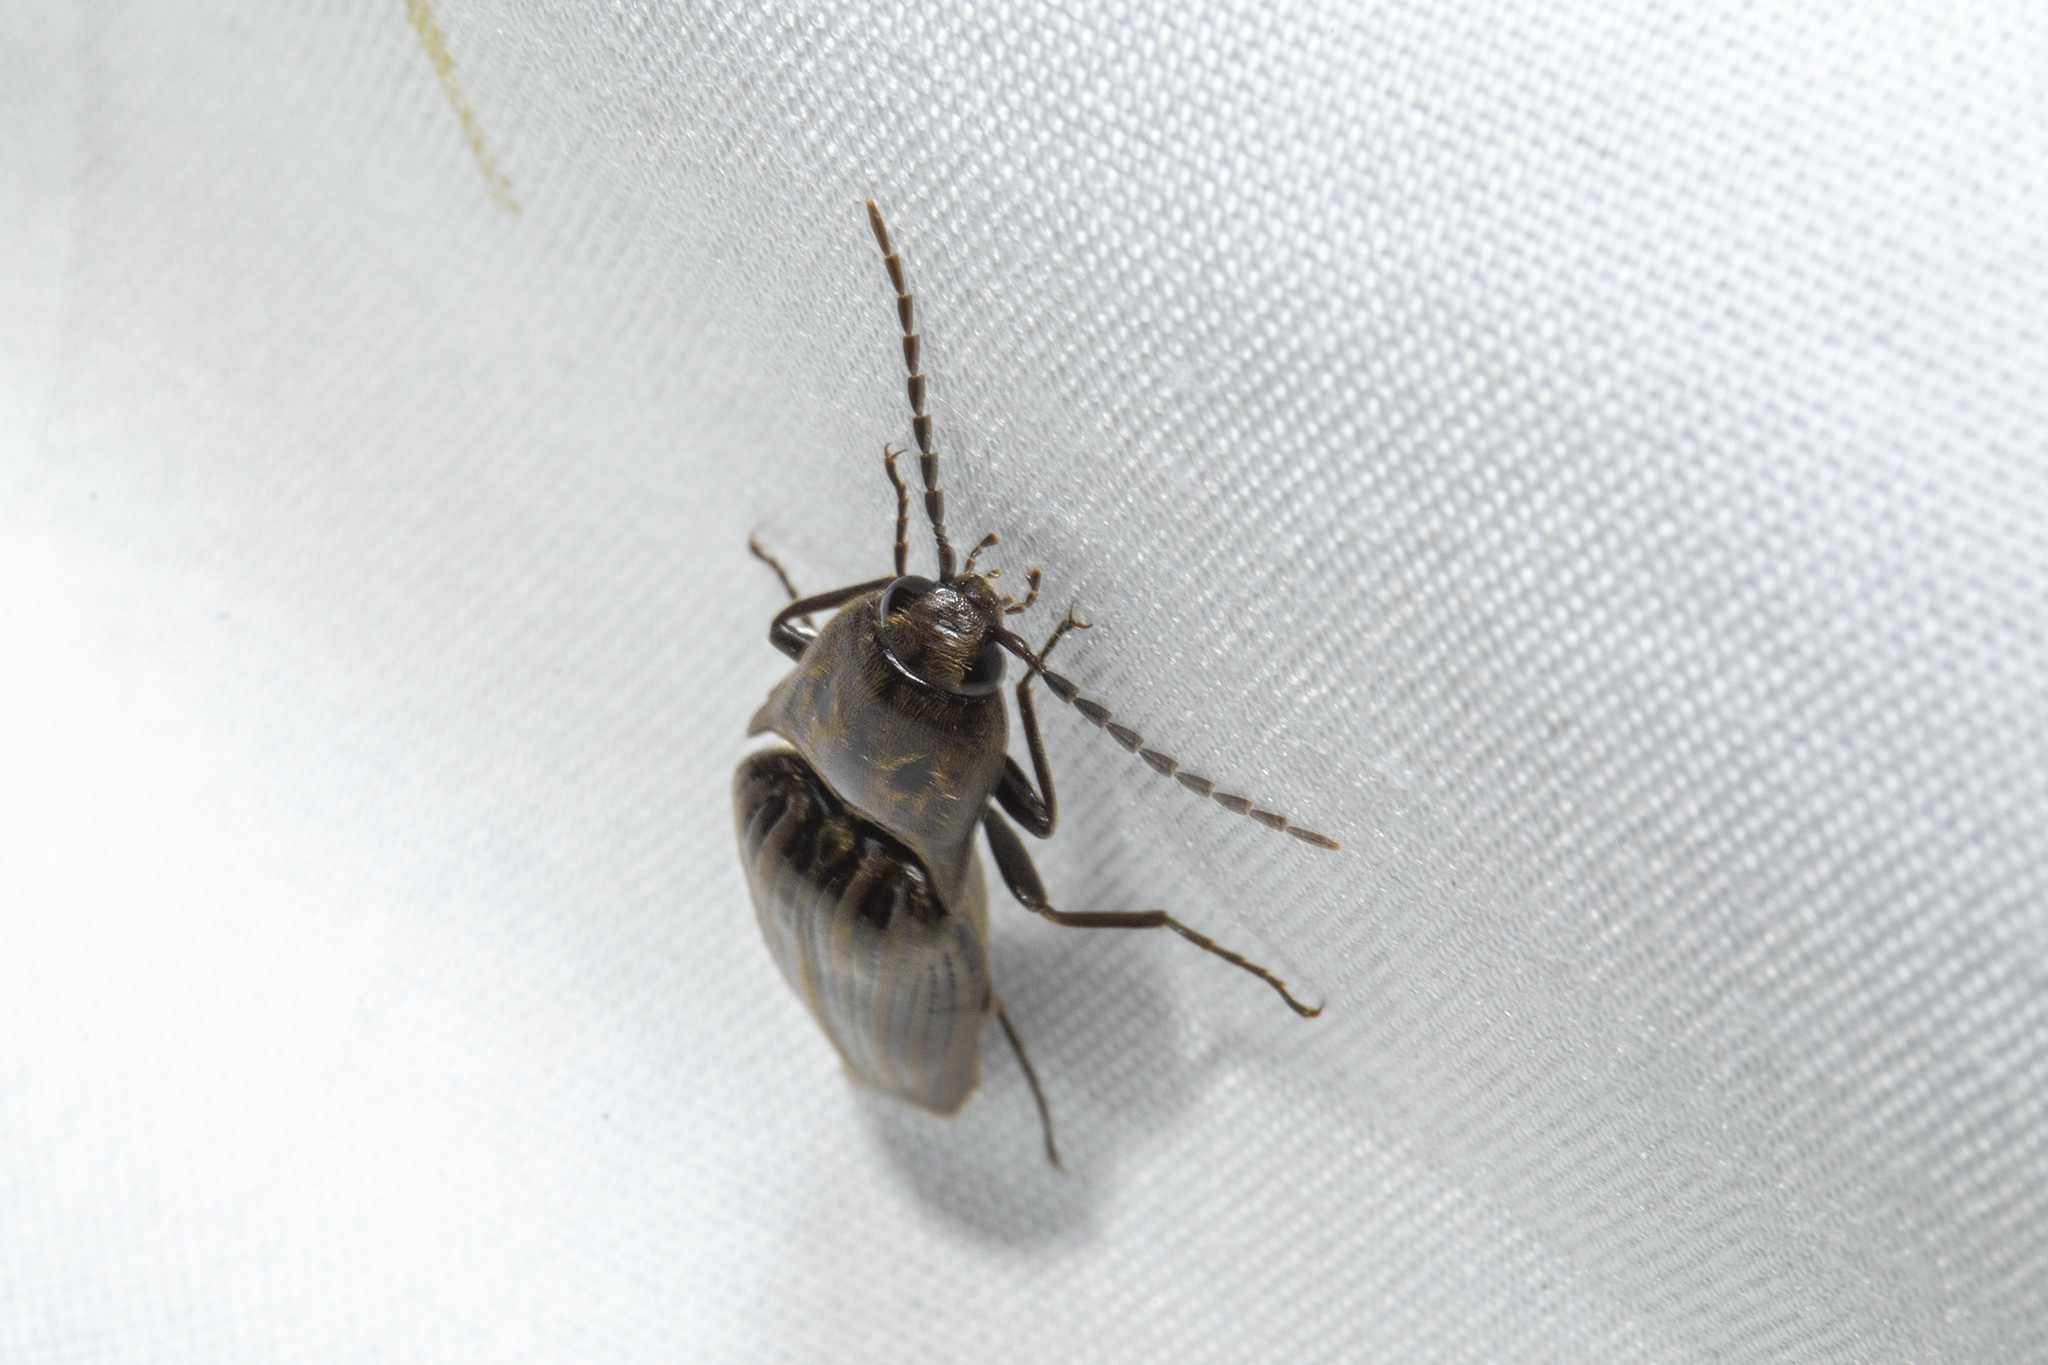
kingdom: Animalia
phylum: Arthropoda
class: Insecta
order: Coleoptera
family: Elateridae
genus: Thoramus
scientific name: Thoramus
